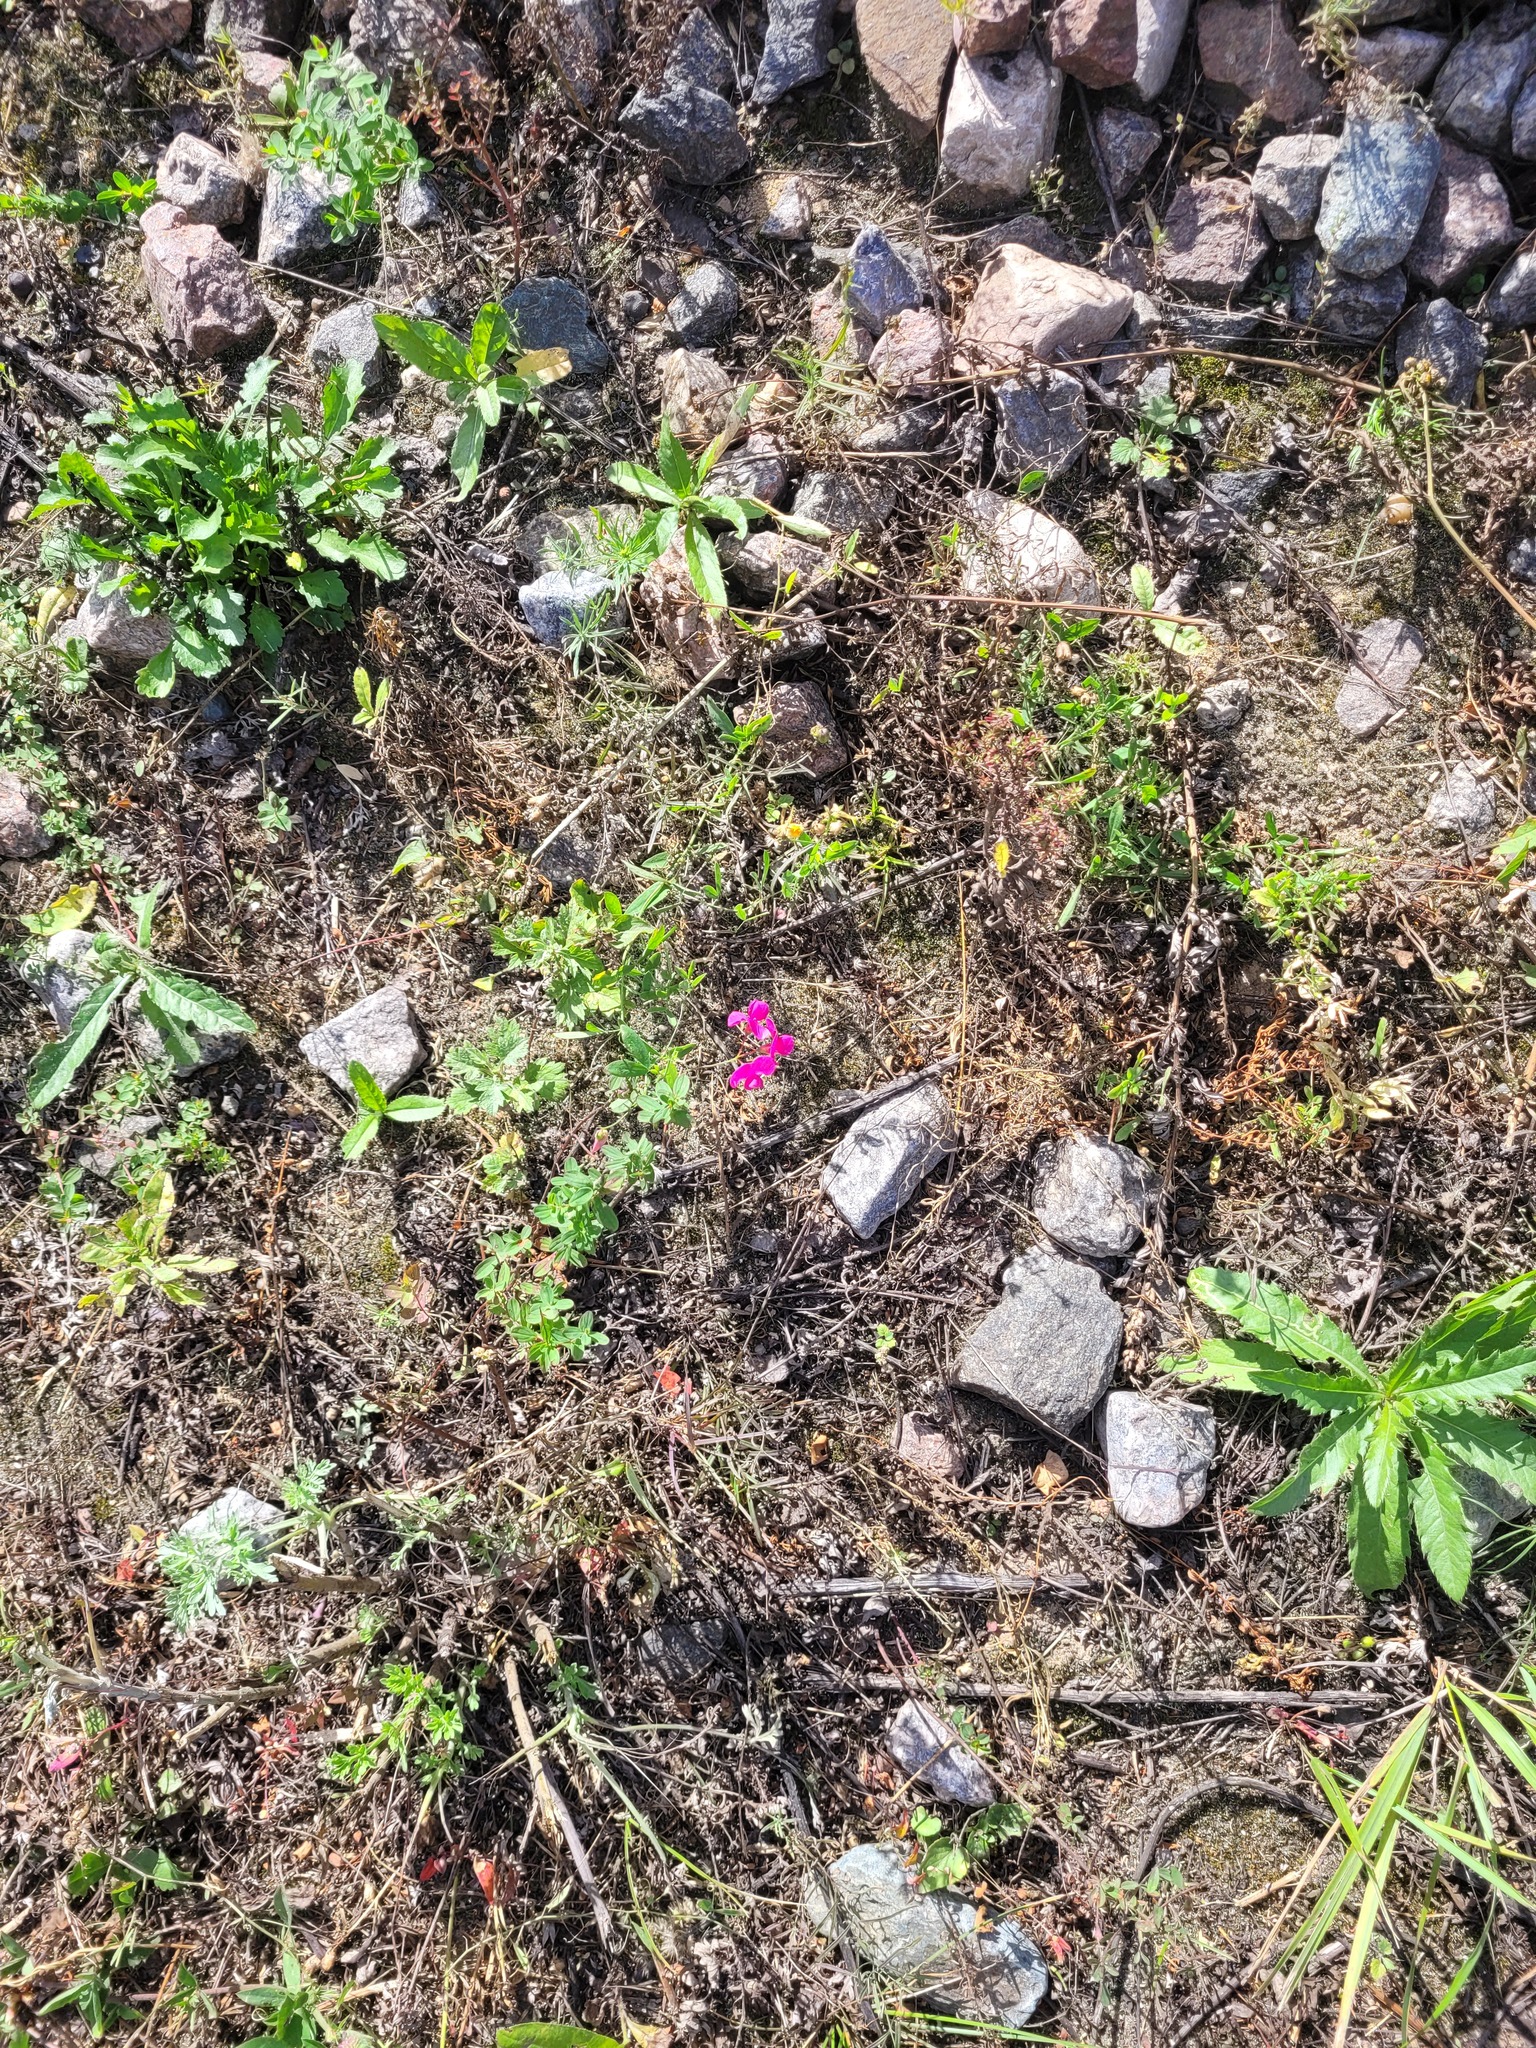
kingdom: Plantae
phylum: Tracheophyta
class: Magnoliopsida
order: Fabales
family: Fabaceae
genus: Lathyrus
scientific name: Lathyrus tuberosus
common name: Tuberous pea
